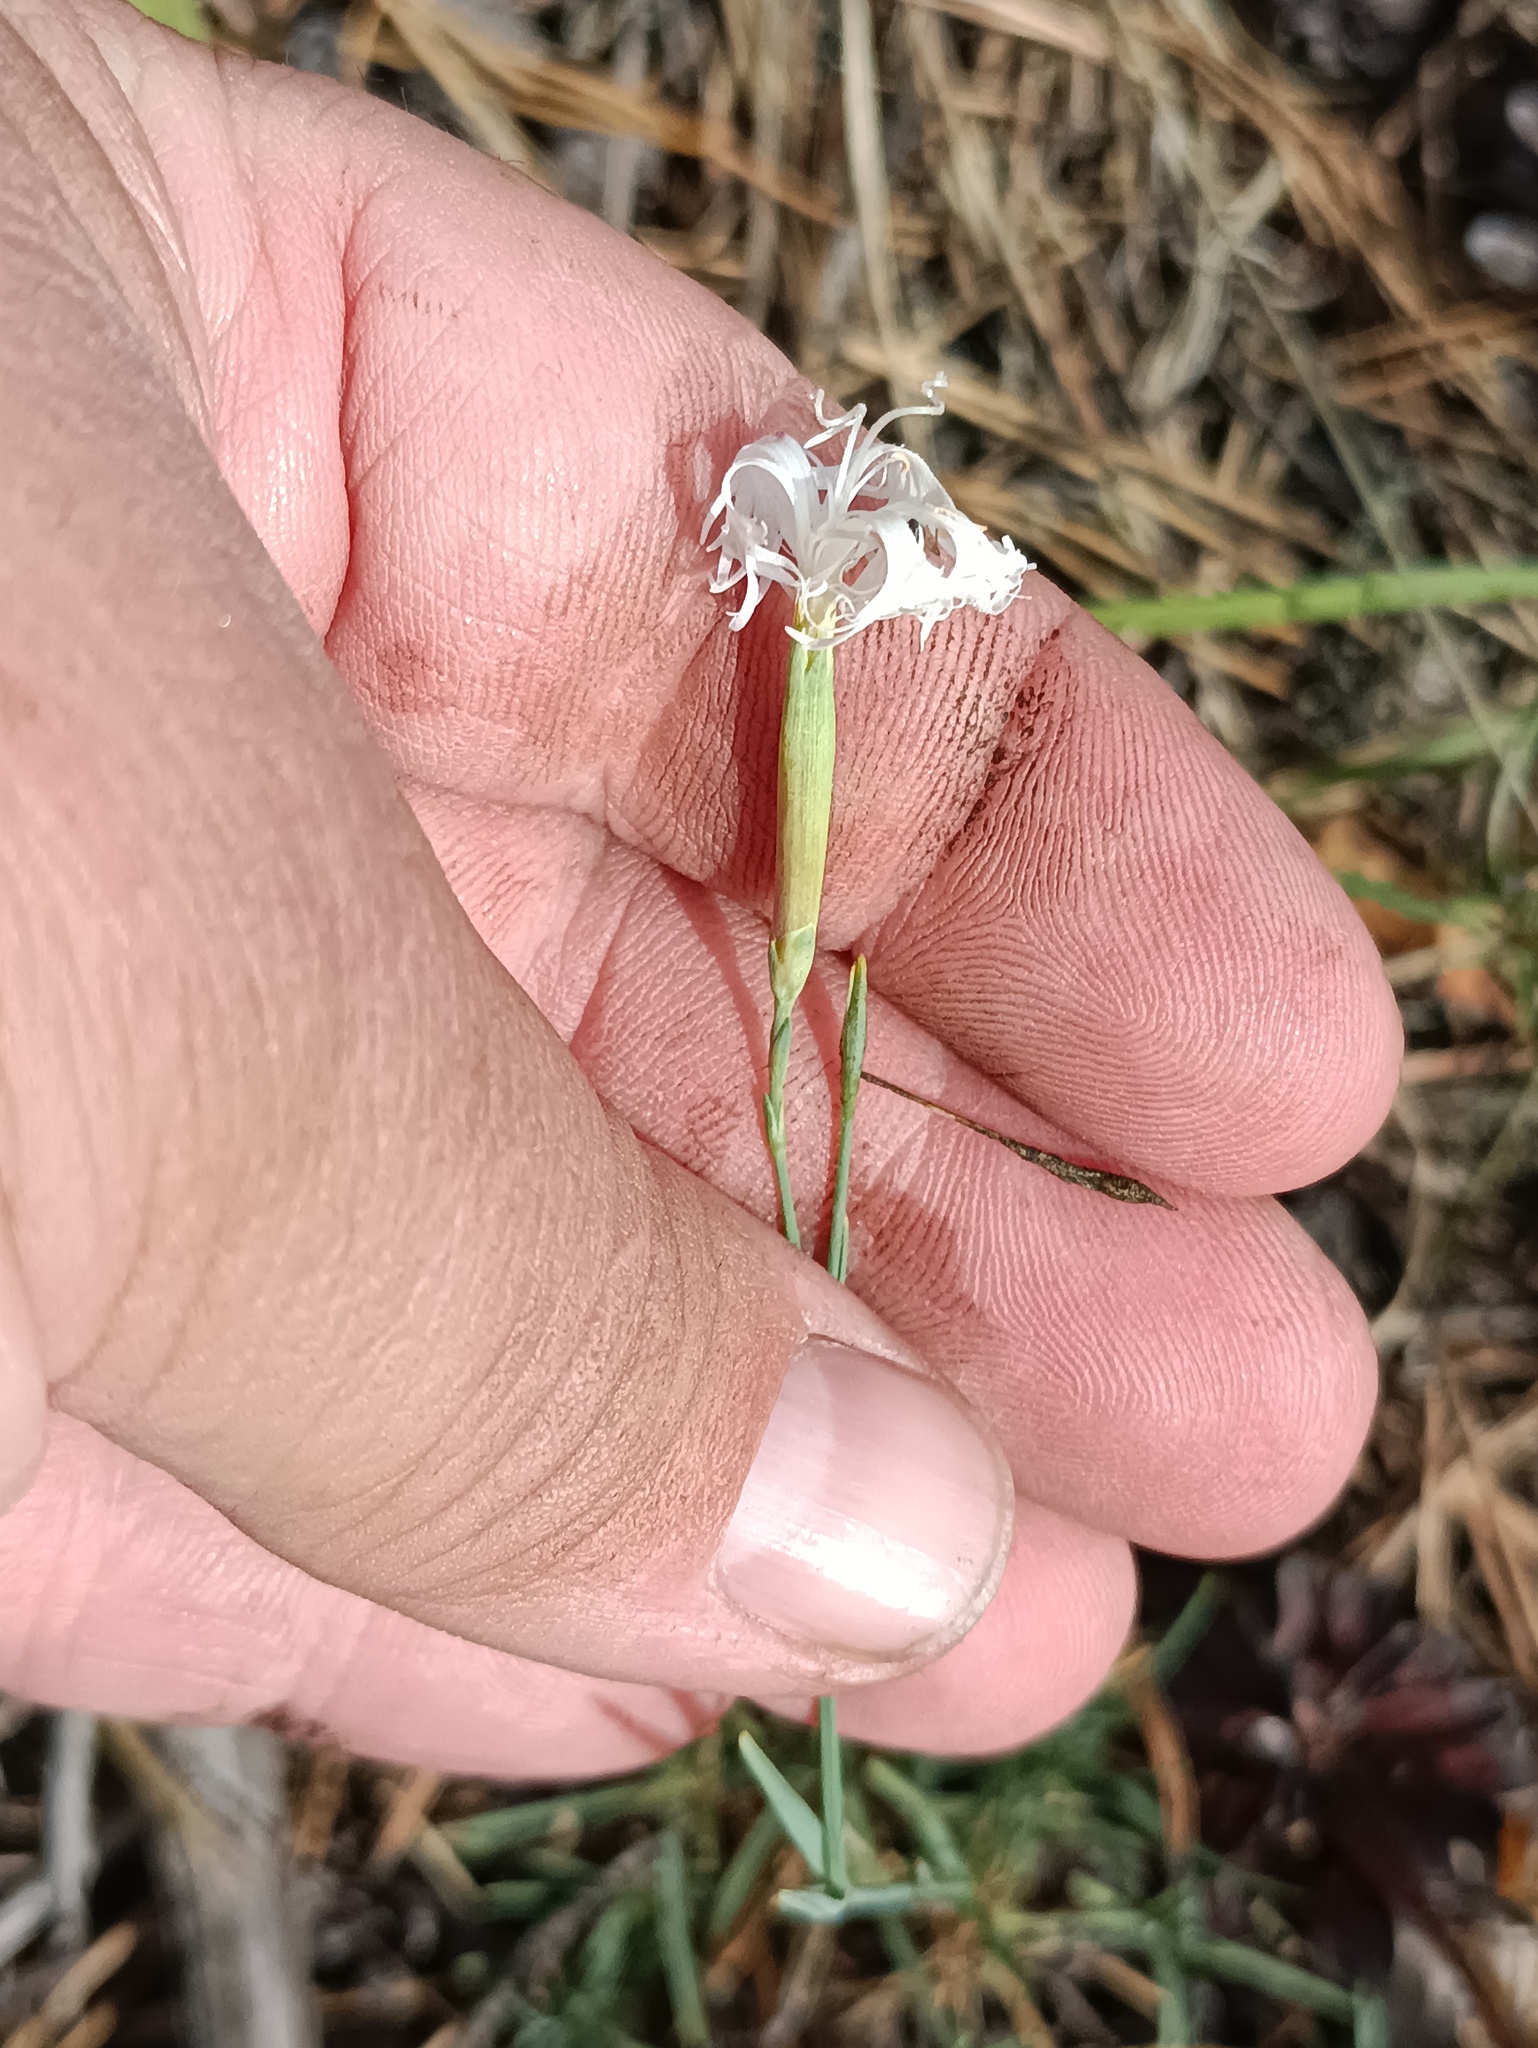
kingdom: Plantae
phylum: Tracheophyta
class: Magnoliopsida
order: Caryophyllales
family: Caryophyllaceae
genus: Dianthus
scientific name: Dianthus arenarius
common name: Stone pink
